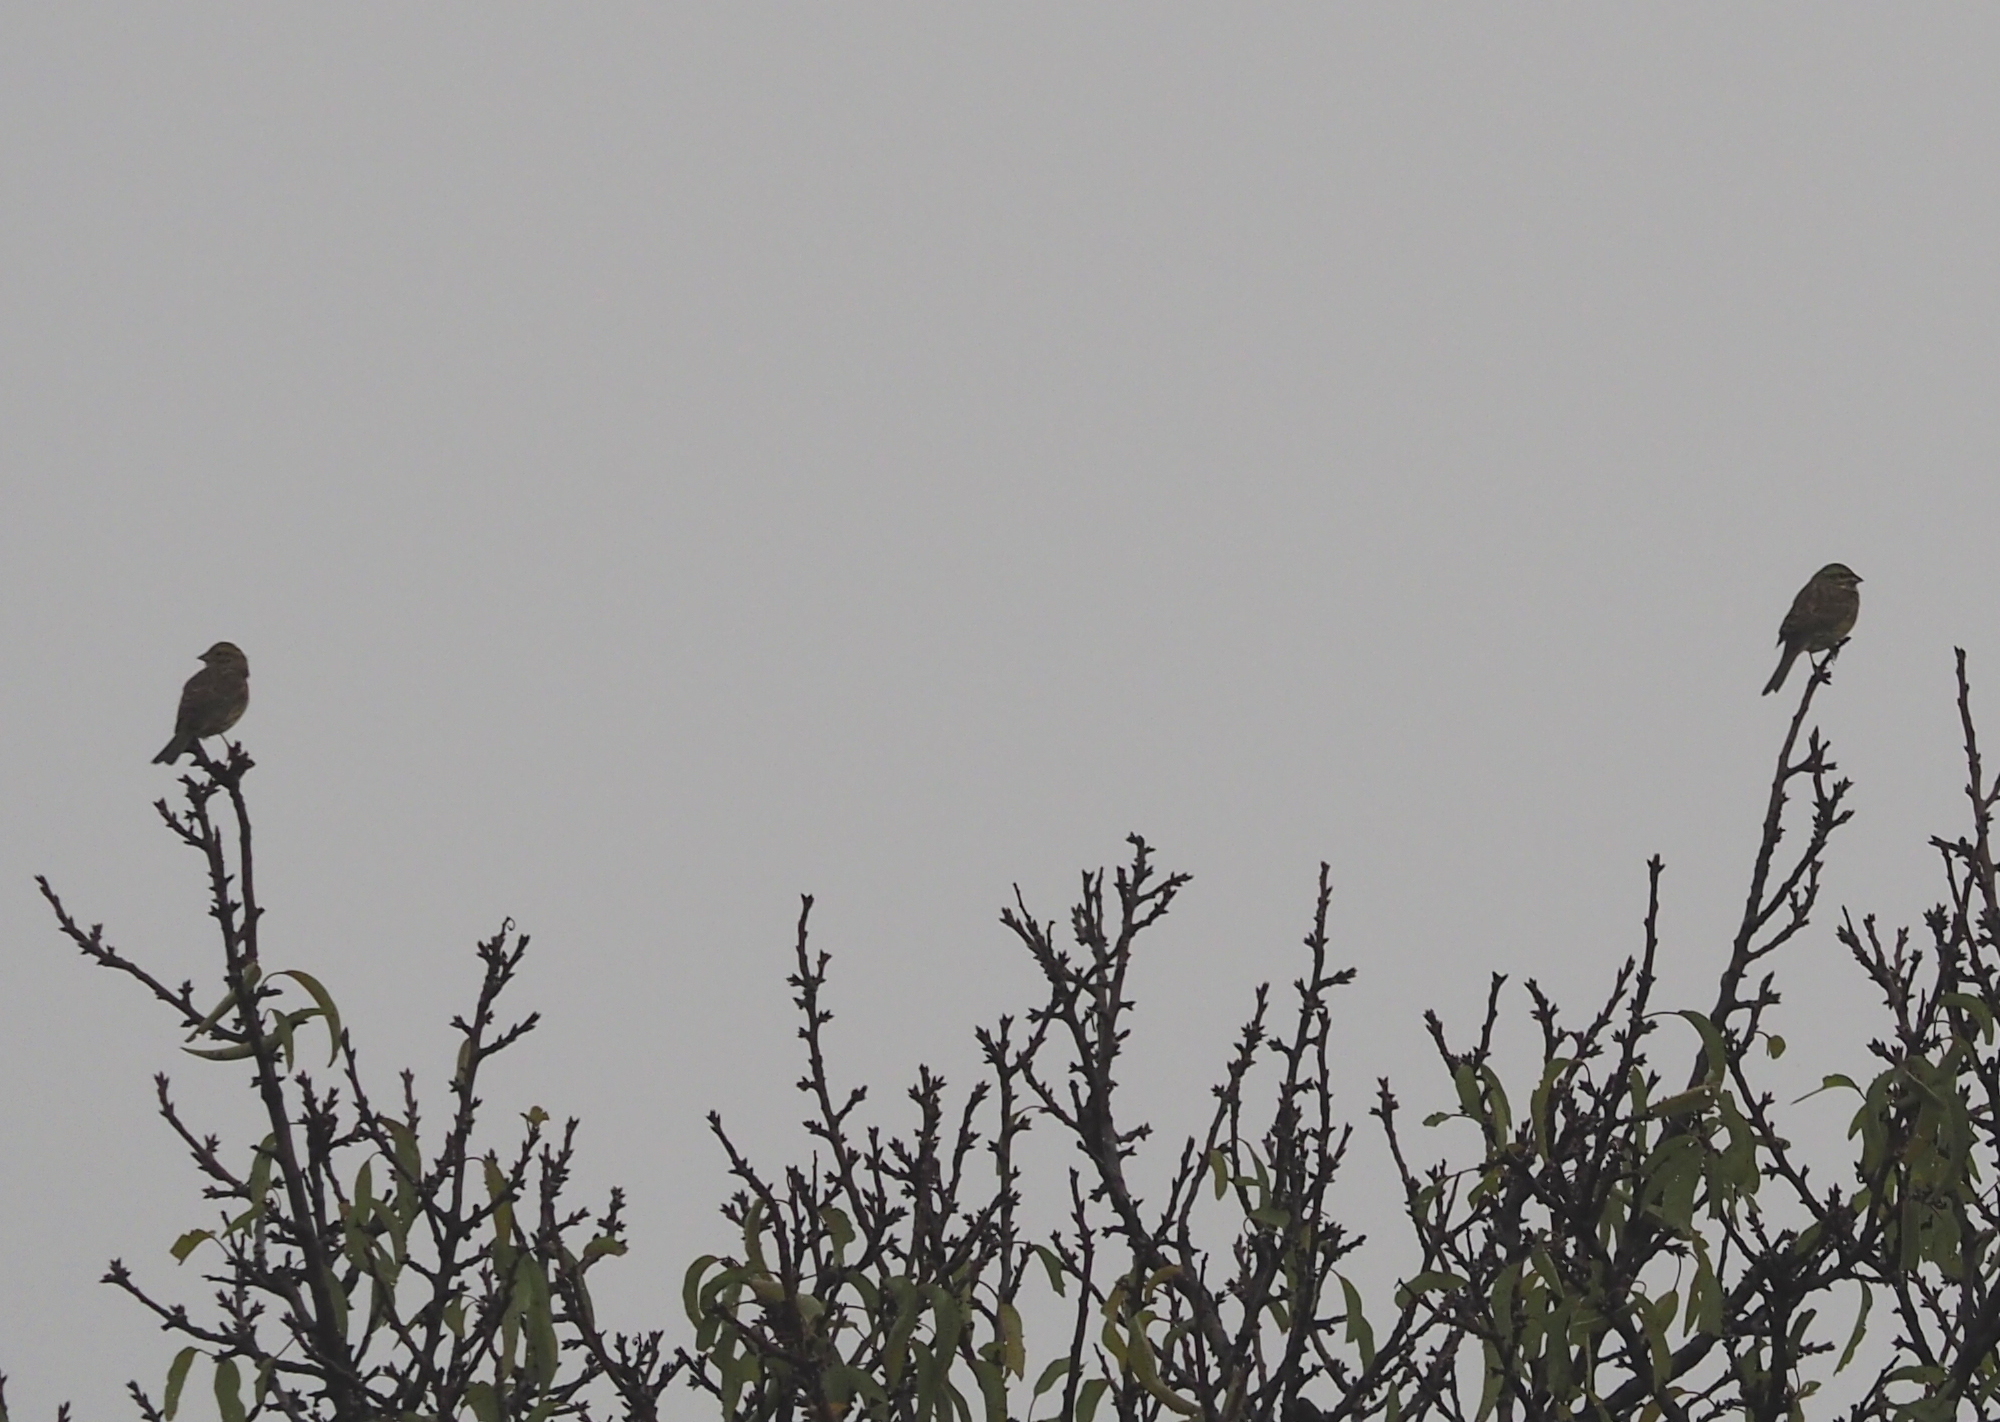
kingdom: Animalia
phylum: Chordata
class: Aves
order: Passeriformes
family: Emberizidae
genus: Emberiza
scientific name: Emberiza cirlus
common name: Cirl bunting
